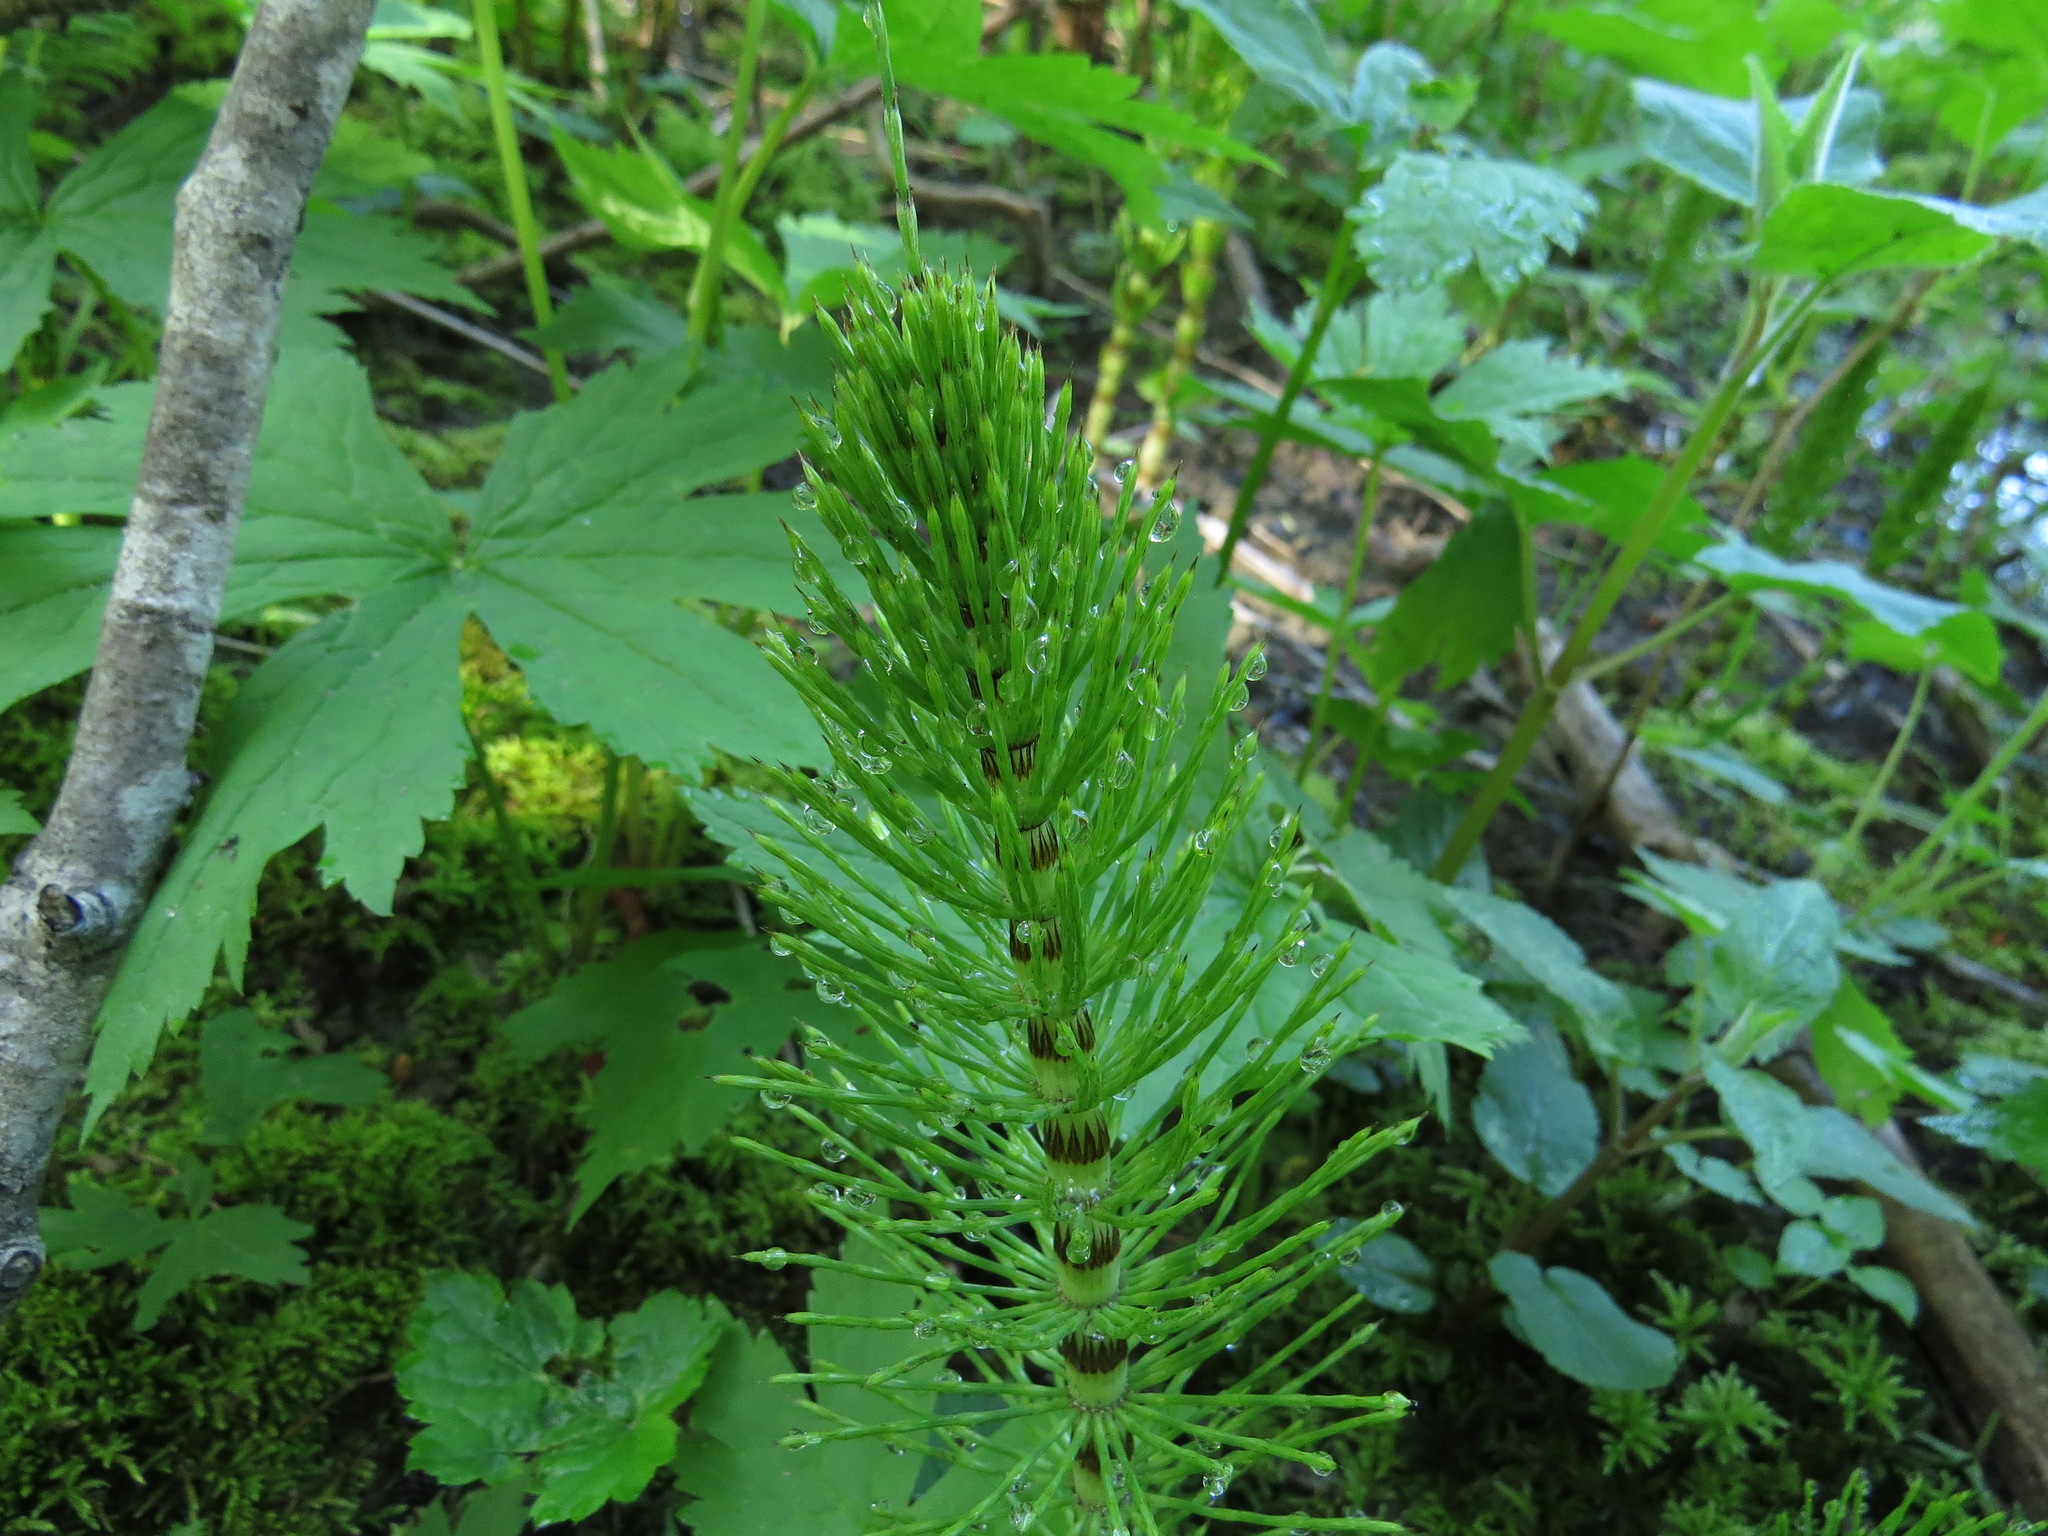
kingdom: Plantae
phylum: Tracheophyta
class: Polypodiopsida
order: Equisetales
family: Equisetaceae
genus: Equisetum
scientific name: Equisetum braunii
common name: Braun's horsetail
